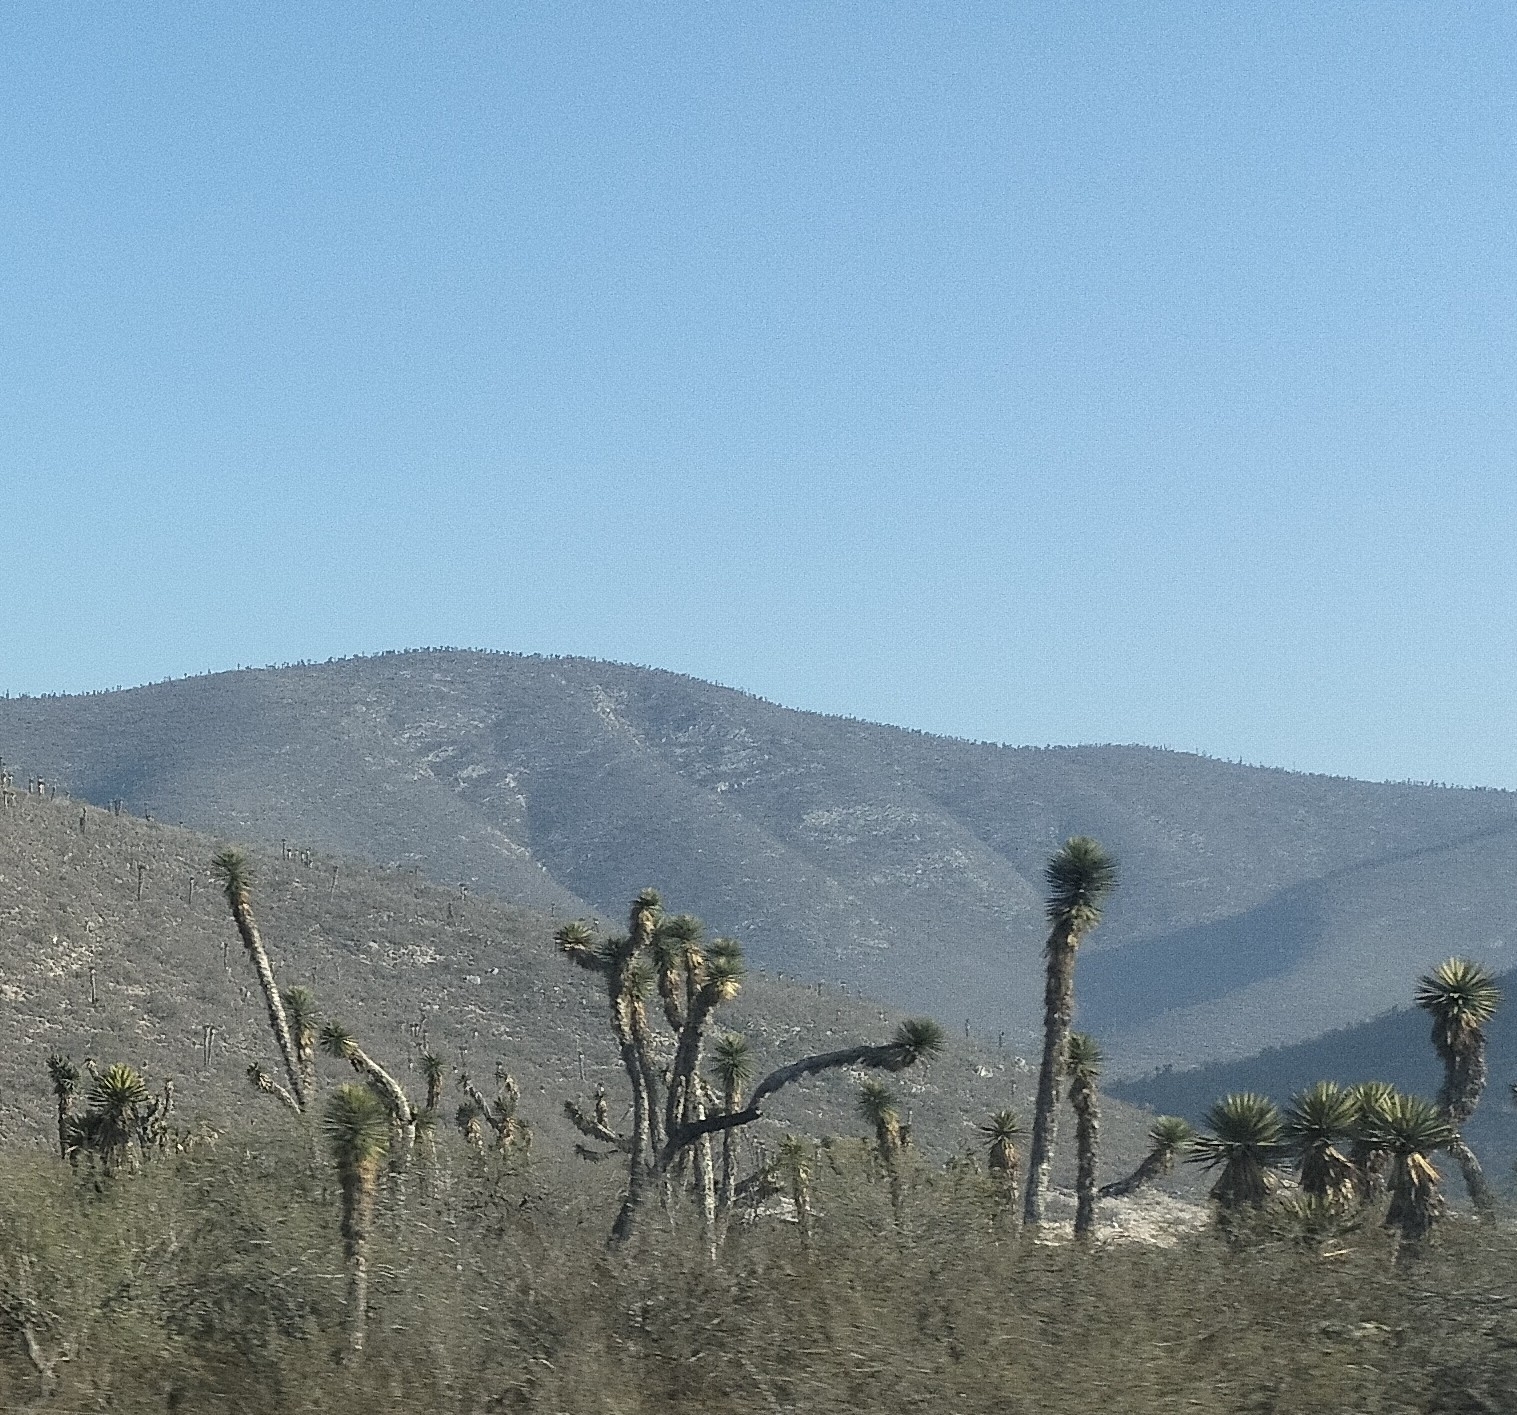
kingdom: Plantae
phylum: Tracheophyta
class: Liliopsida
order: Asparagales
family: Asparagaceae
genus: Yucca
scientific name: Yucca filifera
